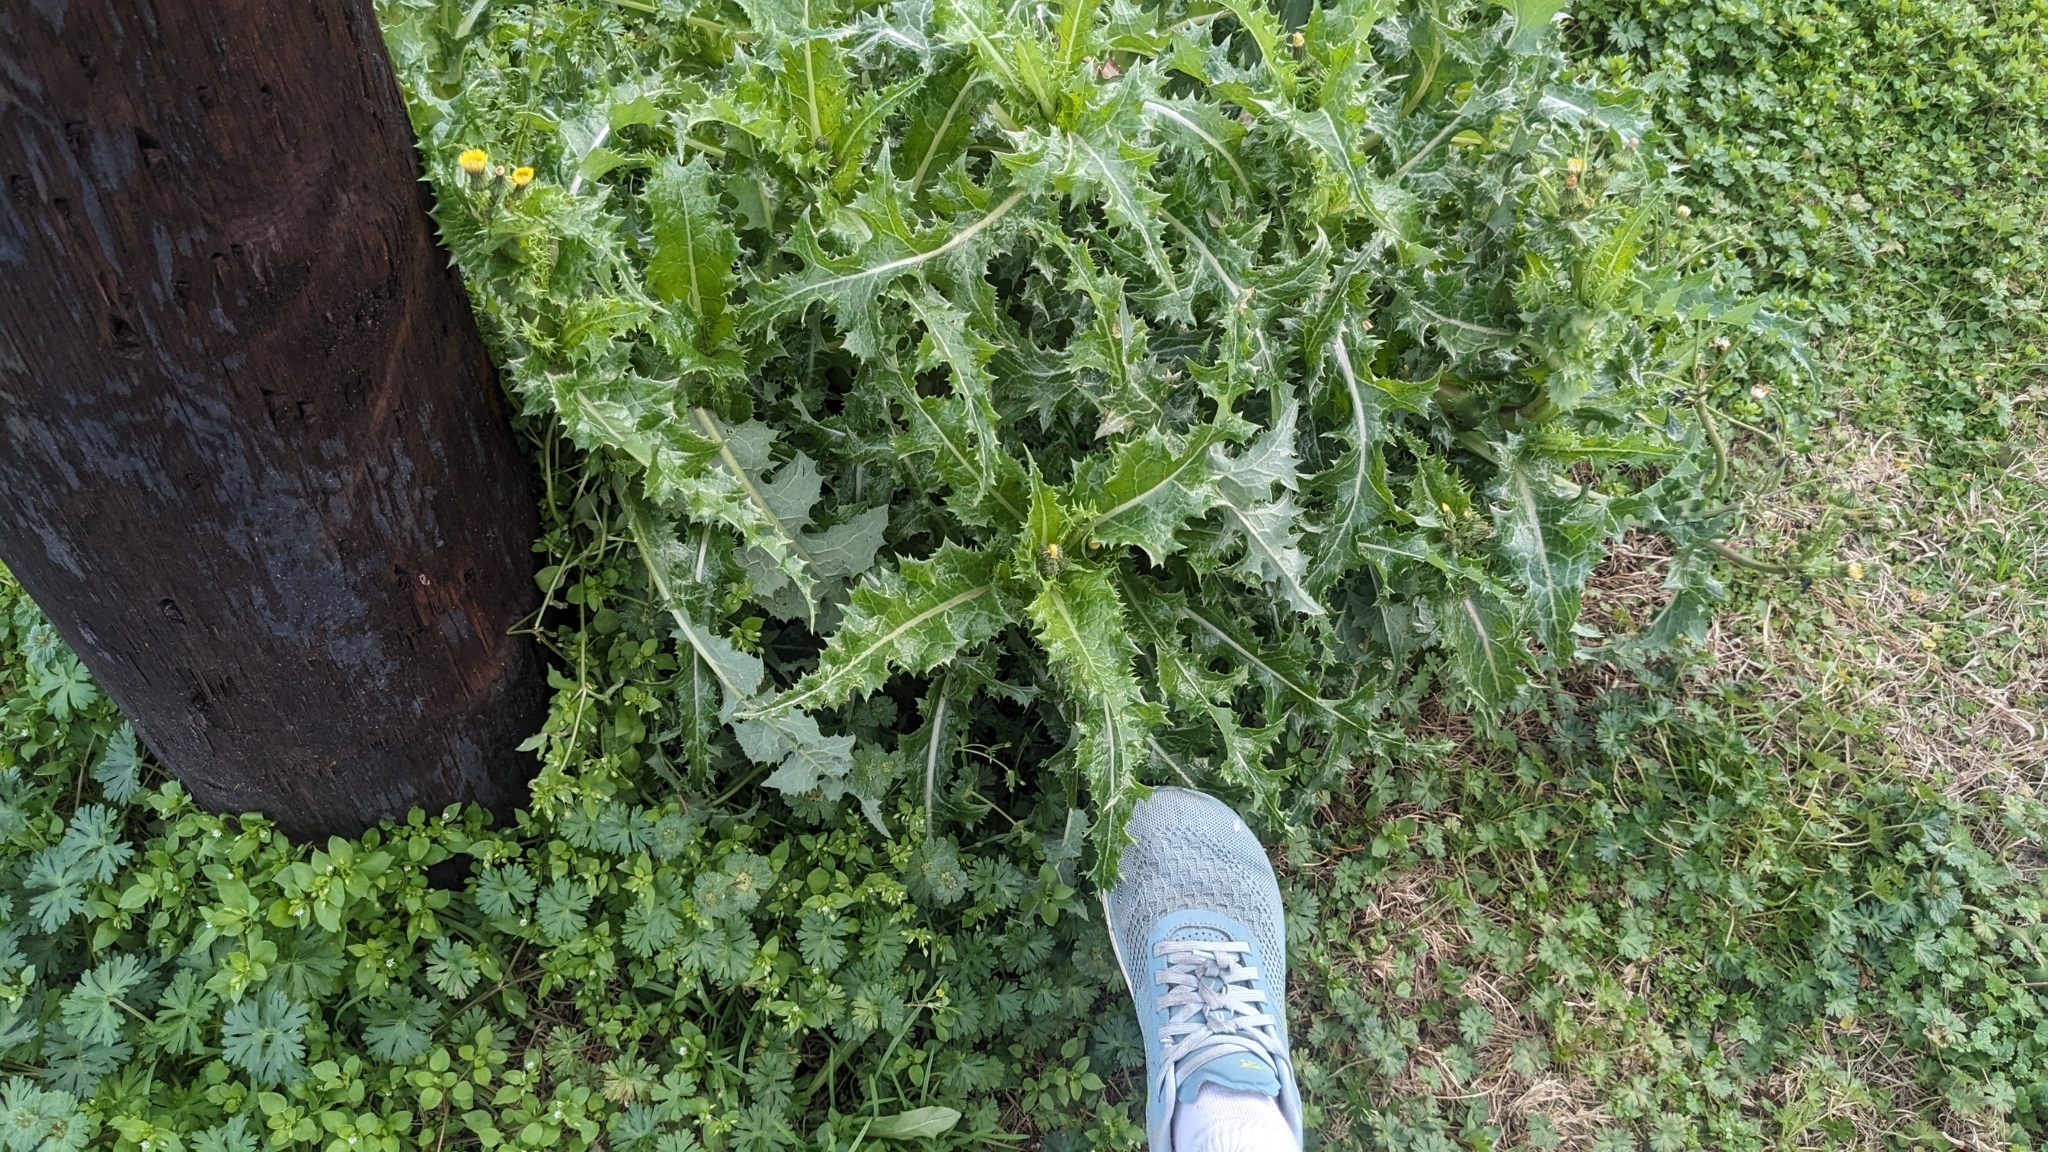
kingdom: Plantae
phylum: Tracheophyta
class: Magnoliopsida
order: Asterales
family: Asteraceae
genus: Sonchus
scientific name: Sonchus asper
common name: Prickly sow-thistle
